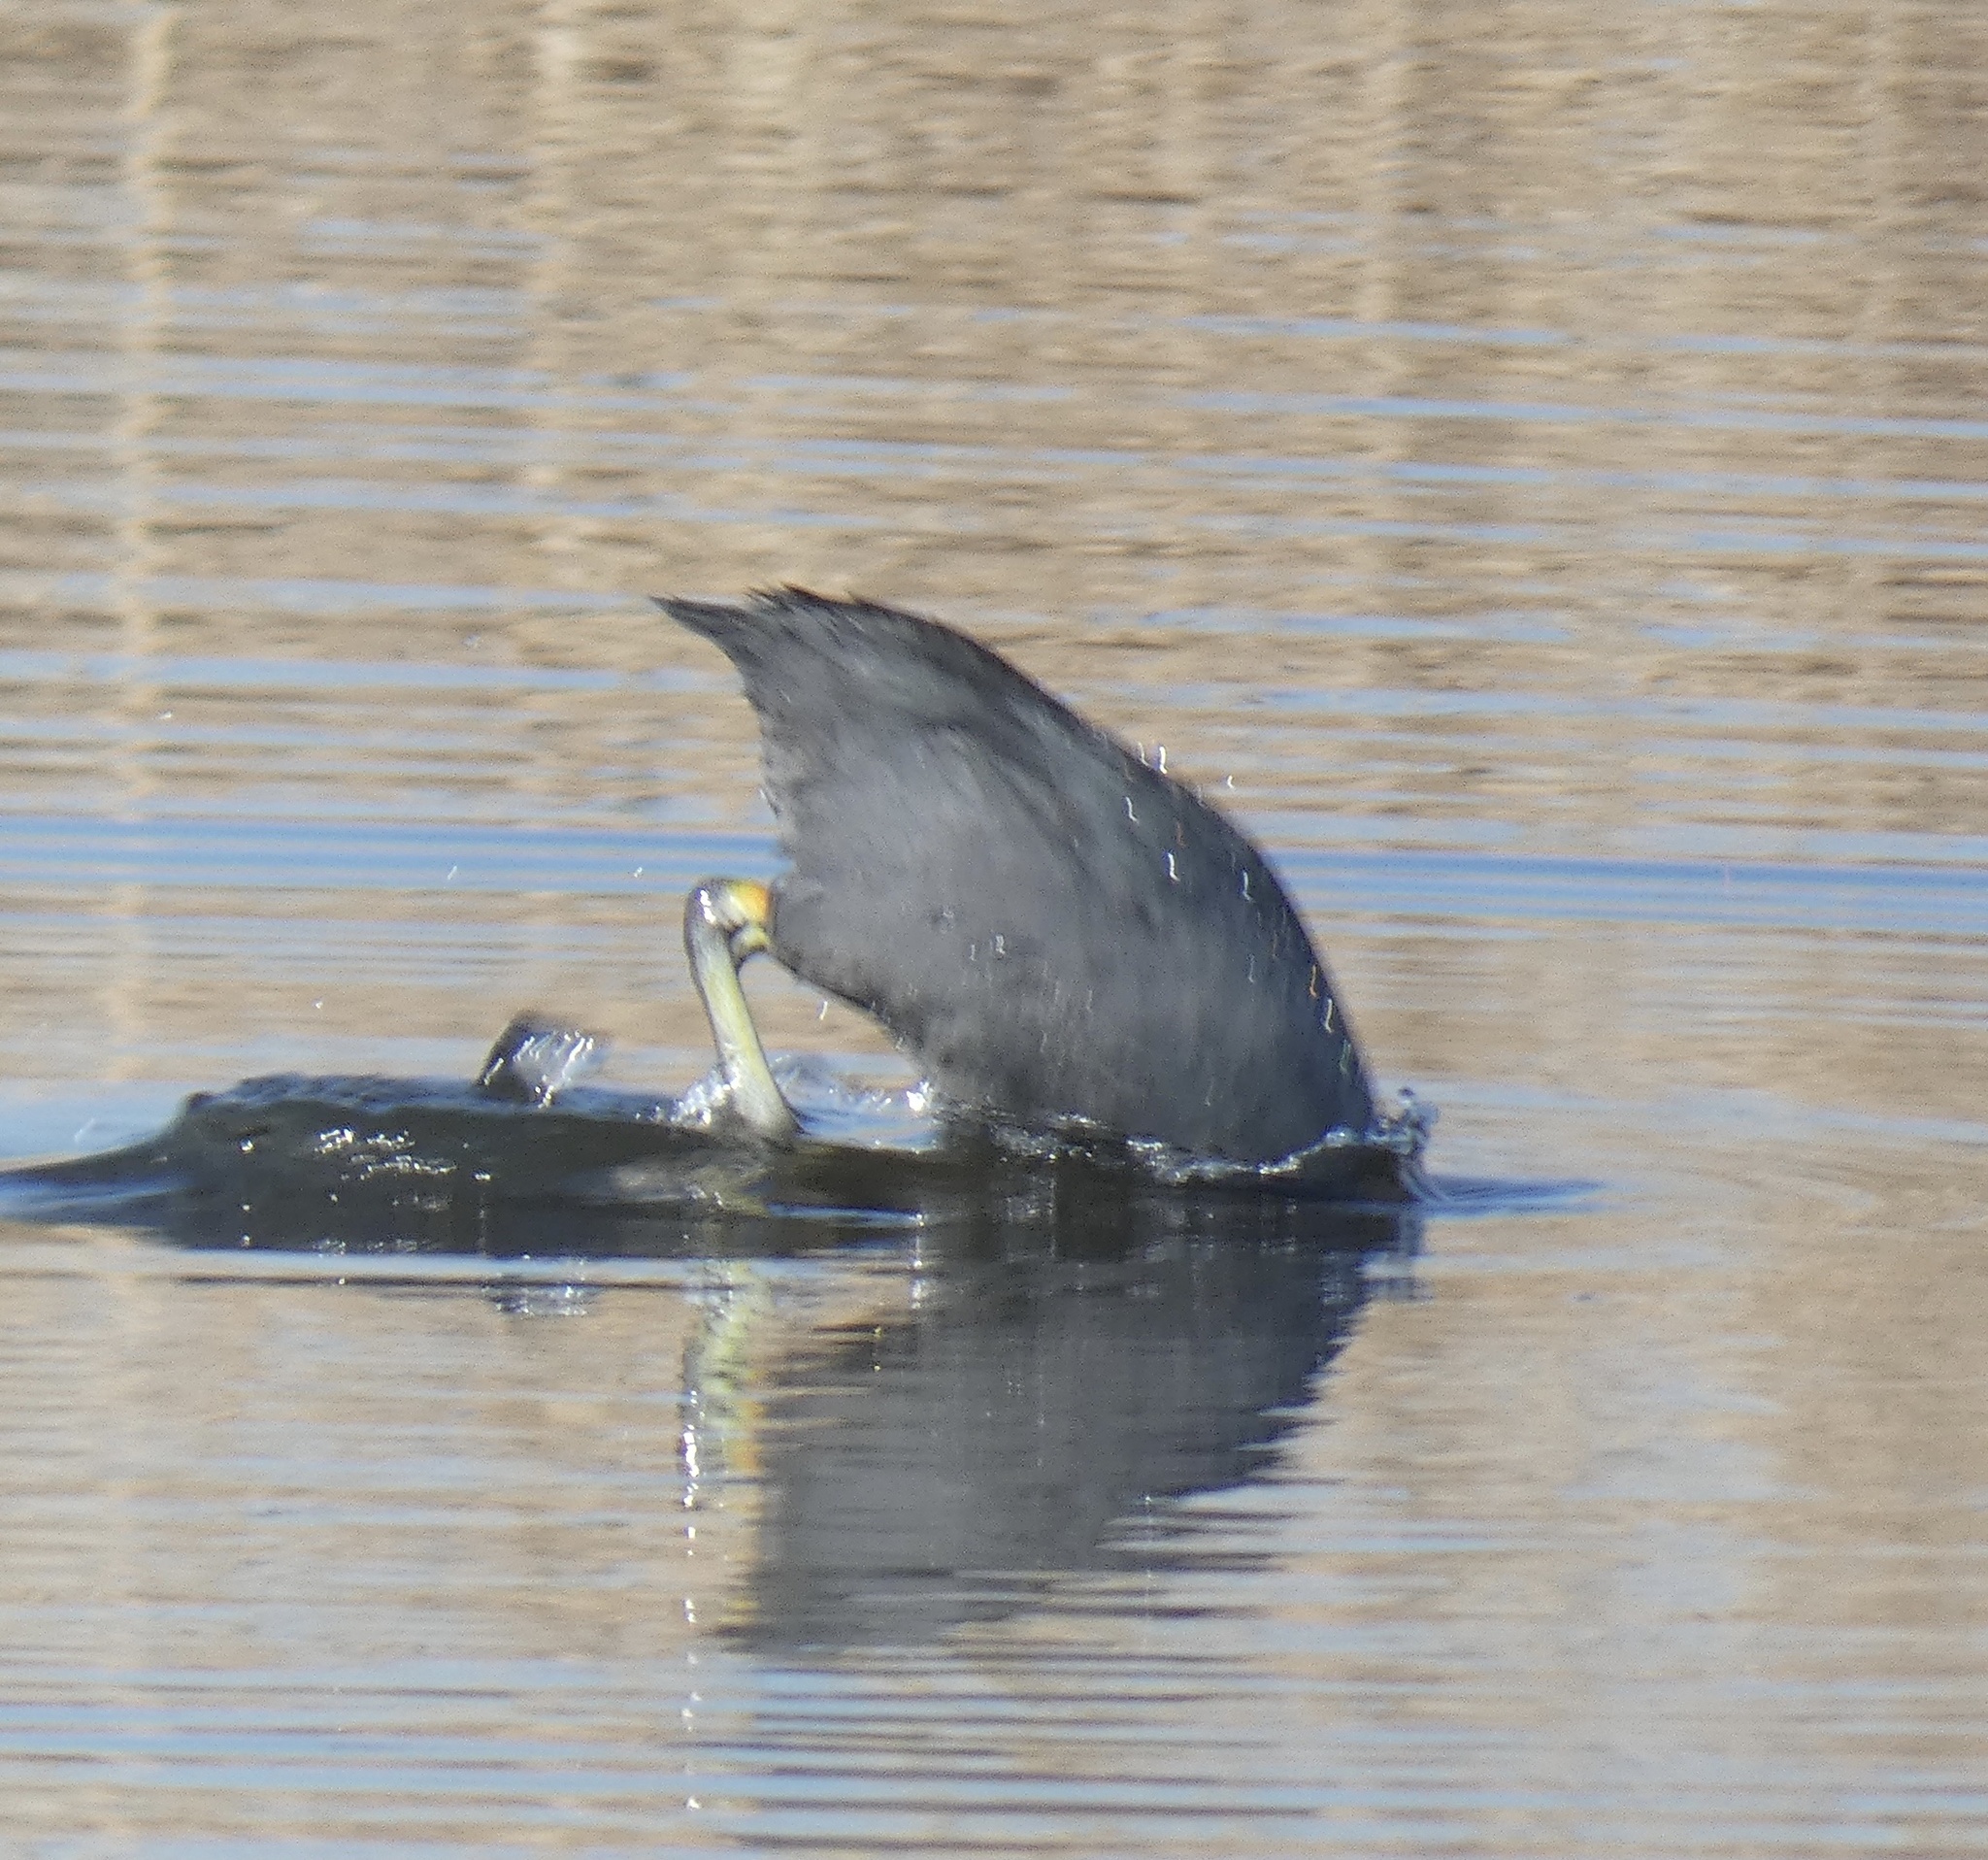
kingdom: Animalia
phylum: Chordata
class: Aves
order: Gruiformes
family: Rallidae
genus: Fulica
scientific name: Fulica atra
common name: Eurasian coot
